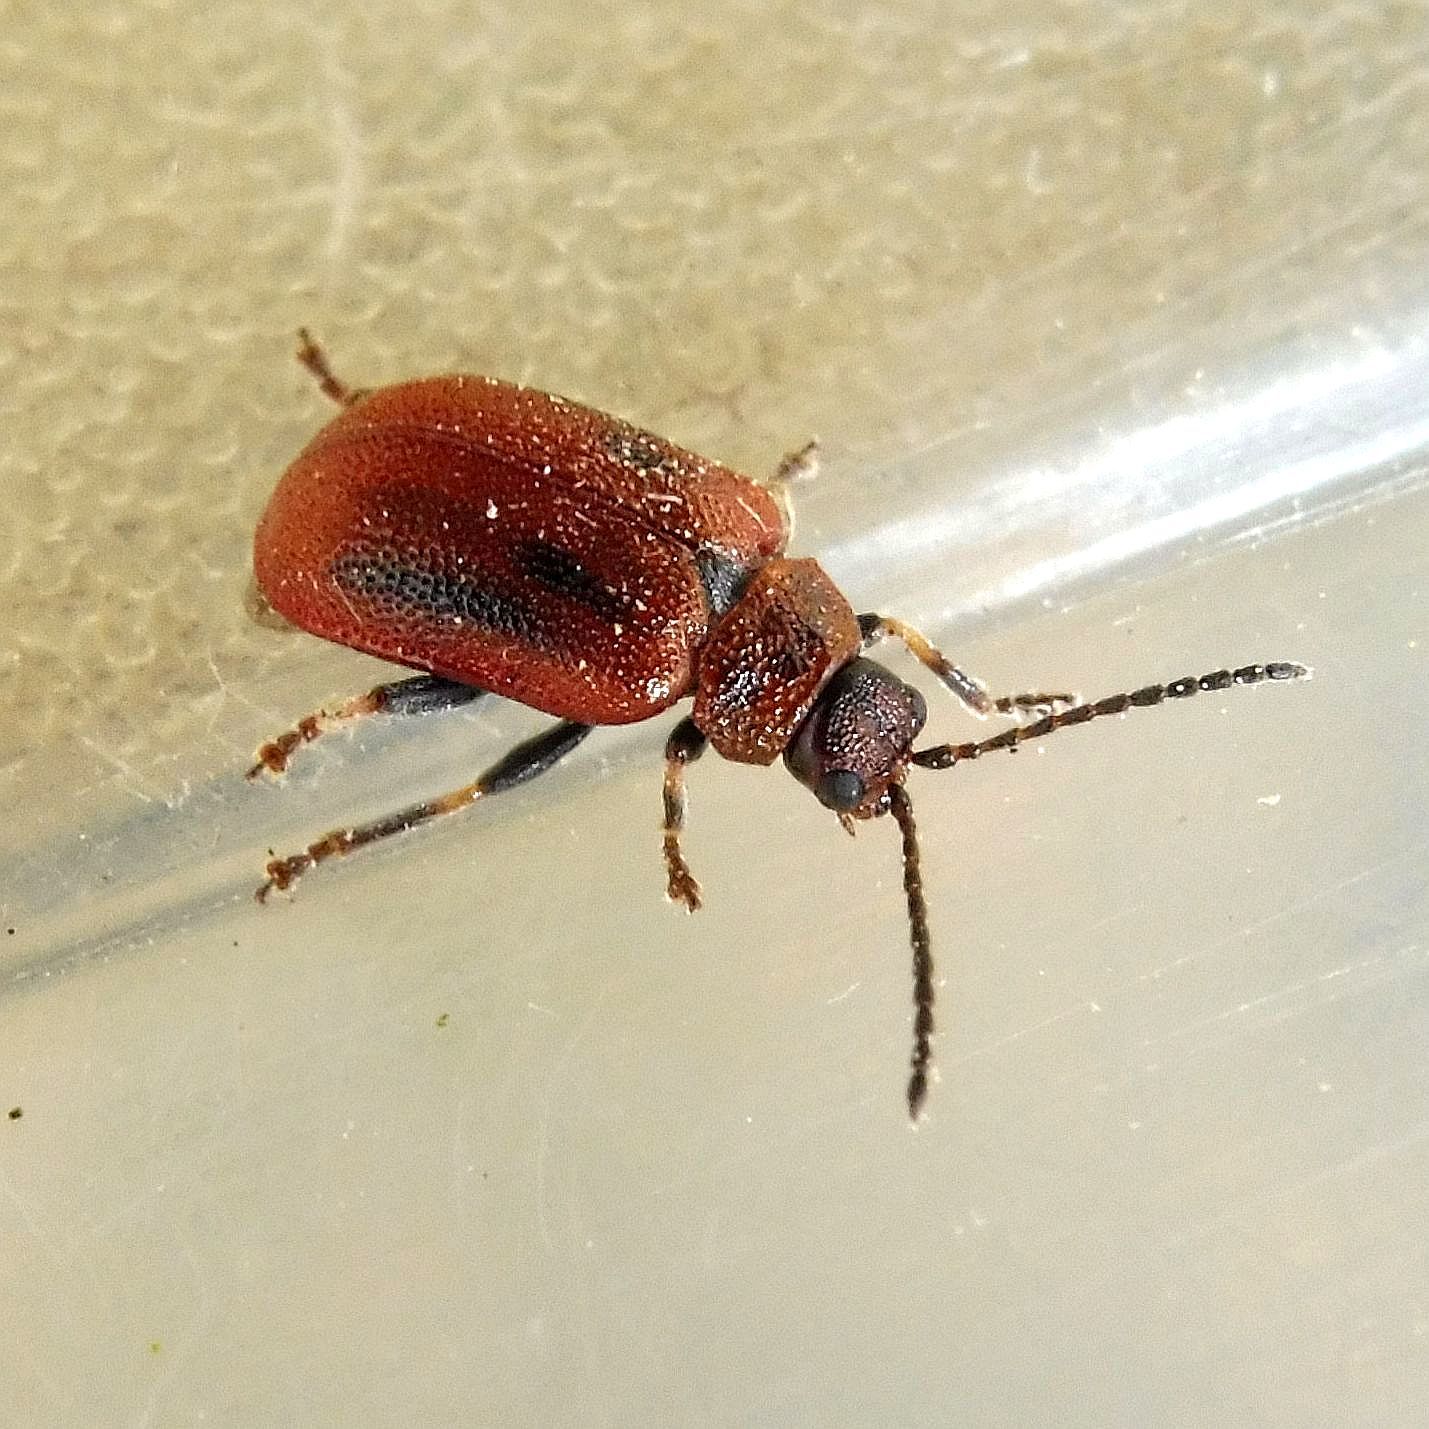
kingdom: Animalia
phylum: Arthropoda
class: Insecta
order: Coleoptera
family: Chrysomelidae
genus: Lochmaea
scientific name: Lochmaea crataegi
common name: Hawthorn leaf beetle
